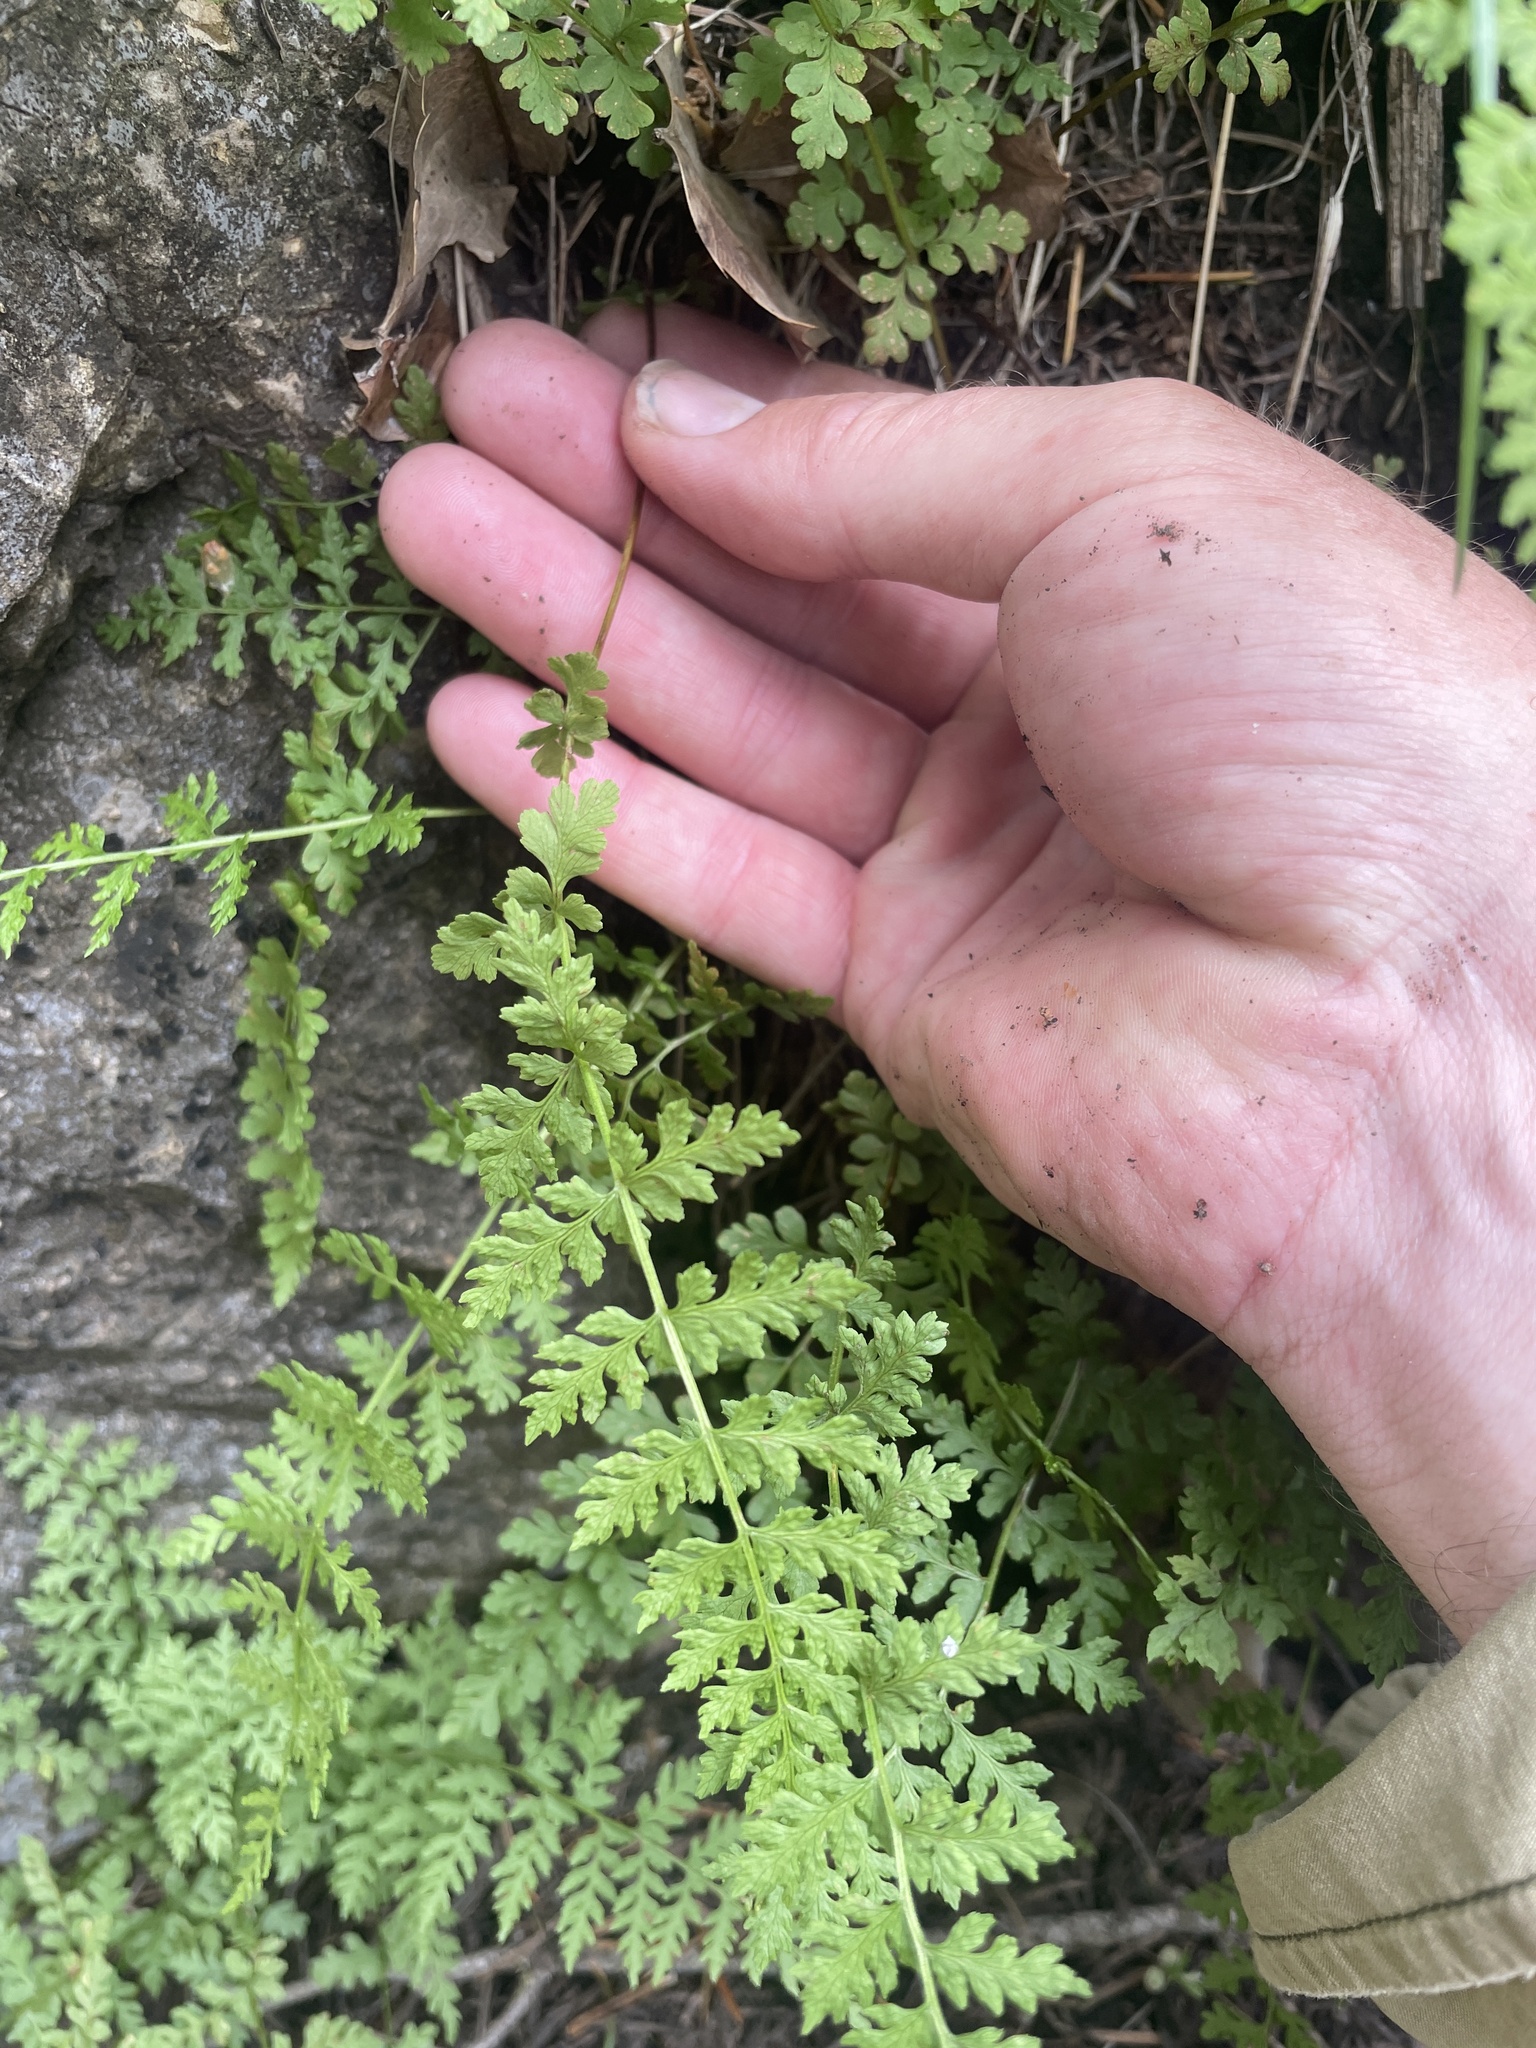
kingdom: Plantae
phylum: Tracheophyta
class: Polypodiopsida
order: Polypodiales
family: Cystopteridaceae
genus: Cystopteris
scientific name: Cystopteris fragilis
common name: Brittle bladder fern
